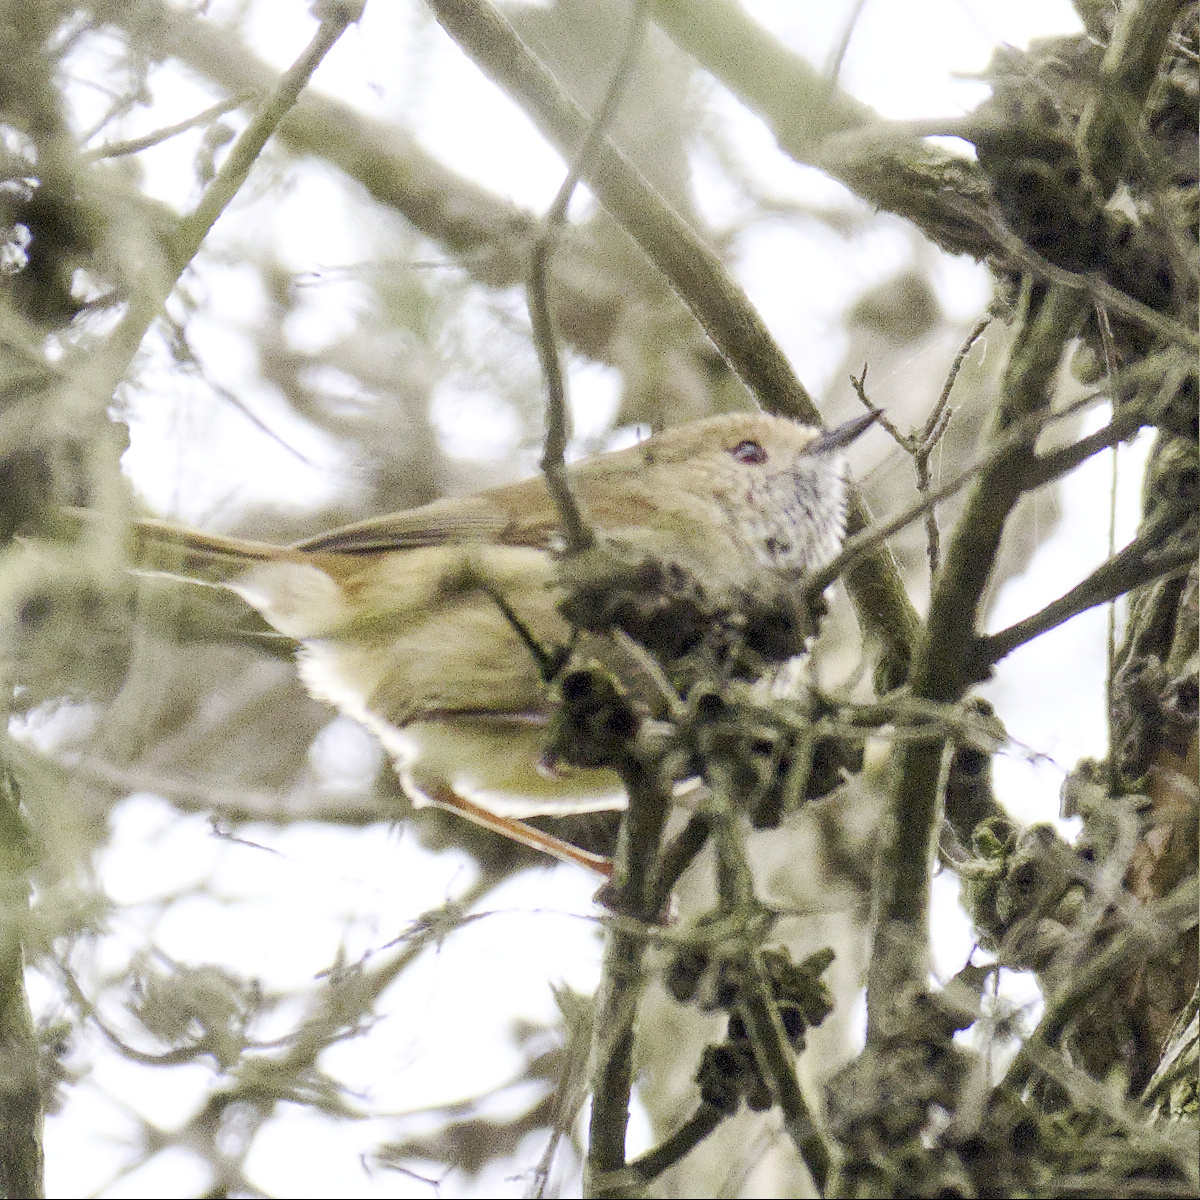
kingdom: Animalia
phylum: Chordata
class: Aves
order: Passeriformes
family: Acanthizidae
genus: Acanthiza
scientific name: Acanthiza pusilla
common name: Brown thornbill
